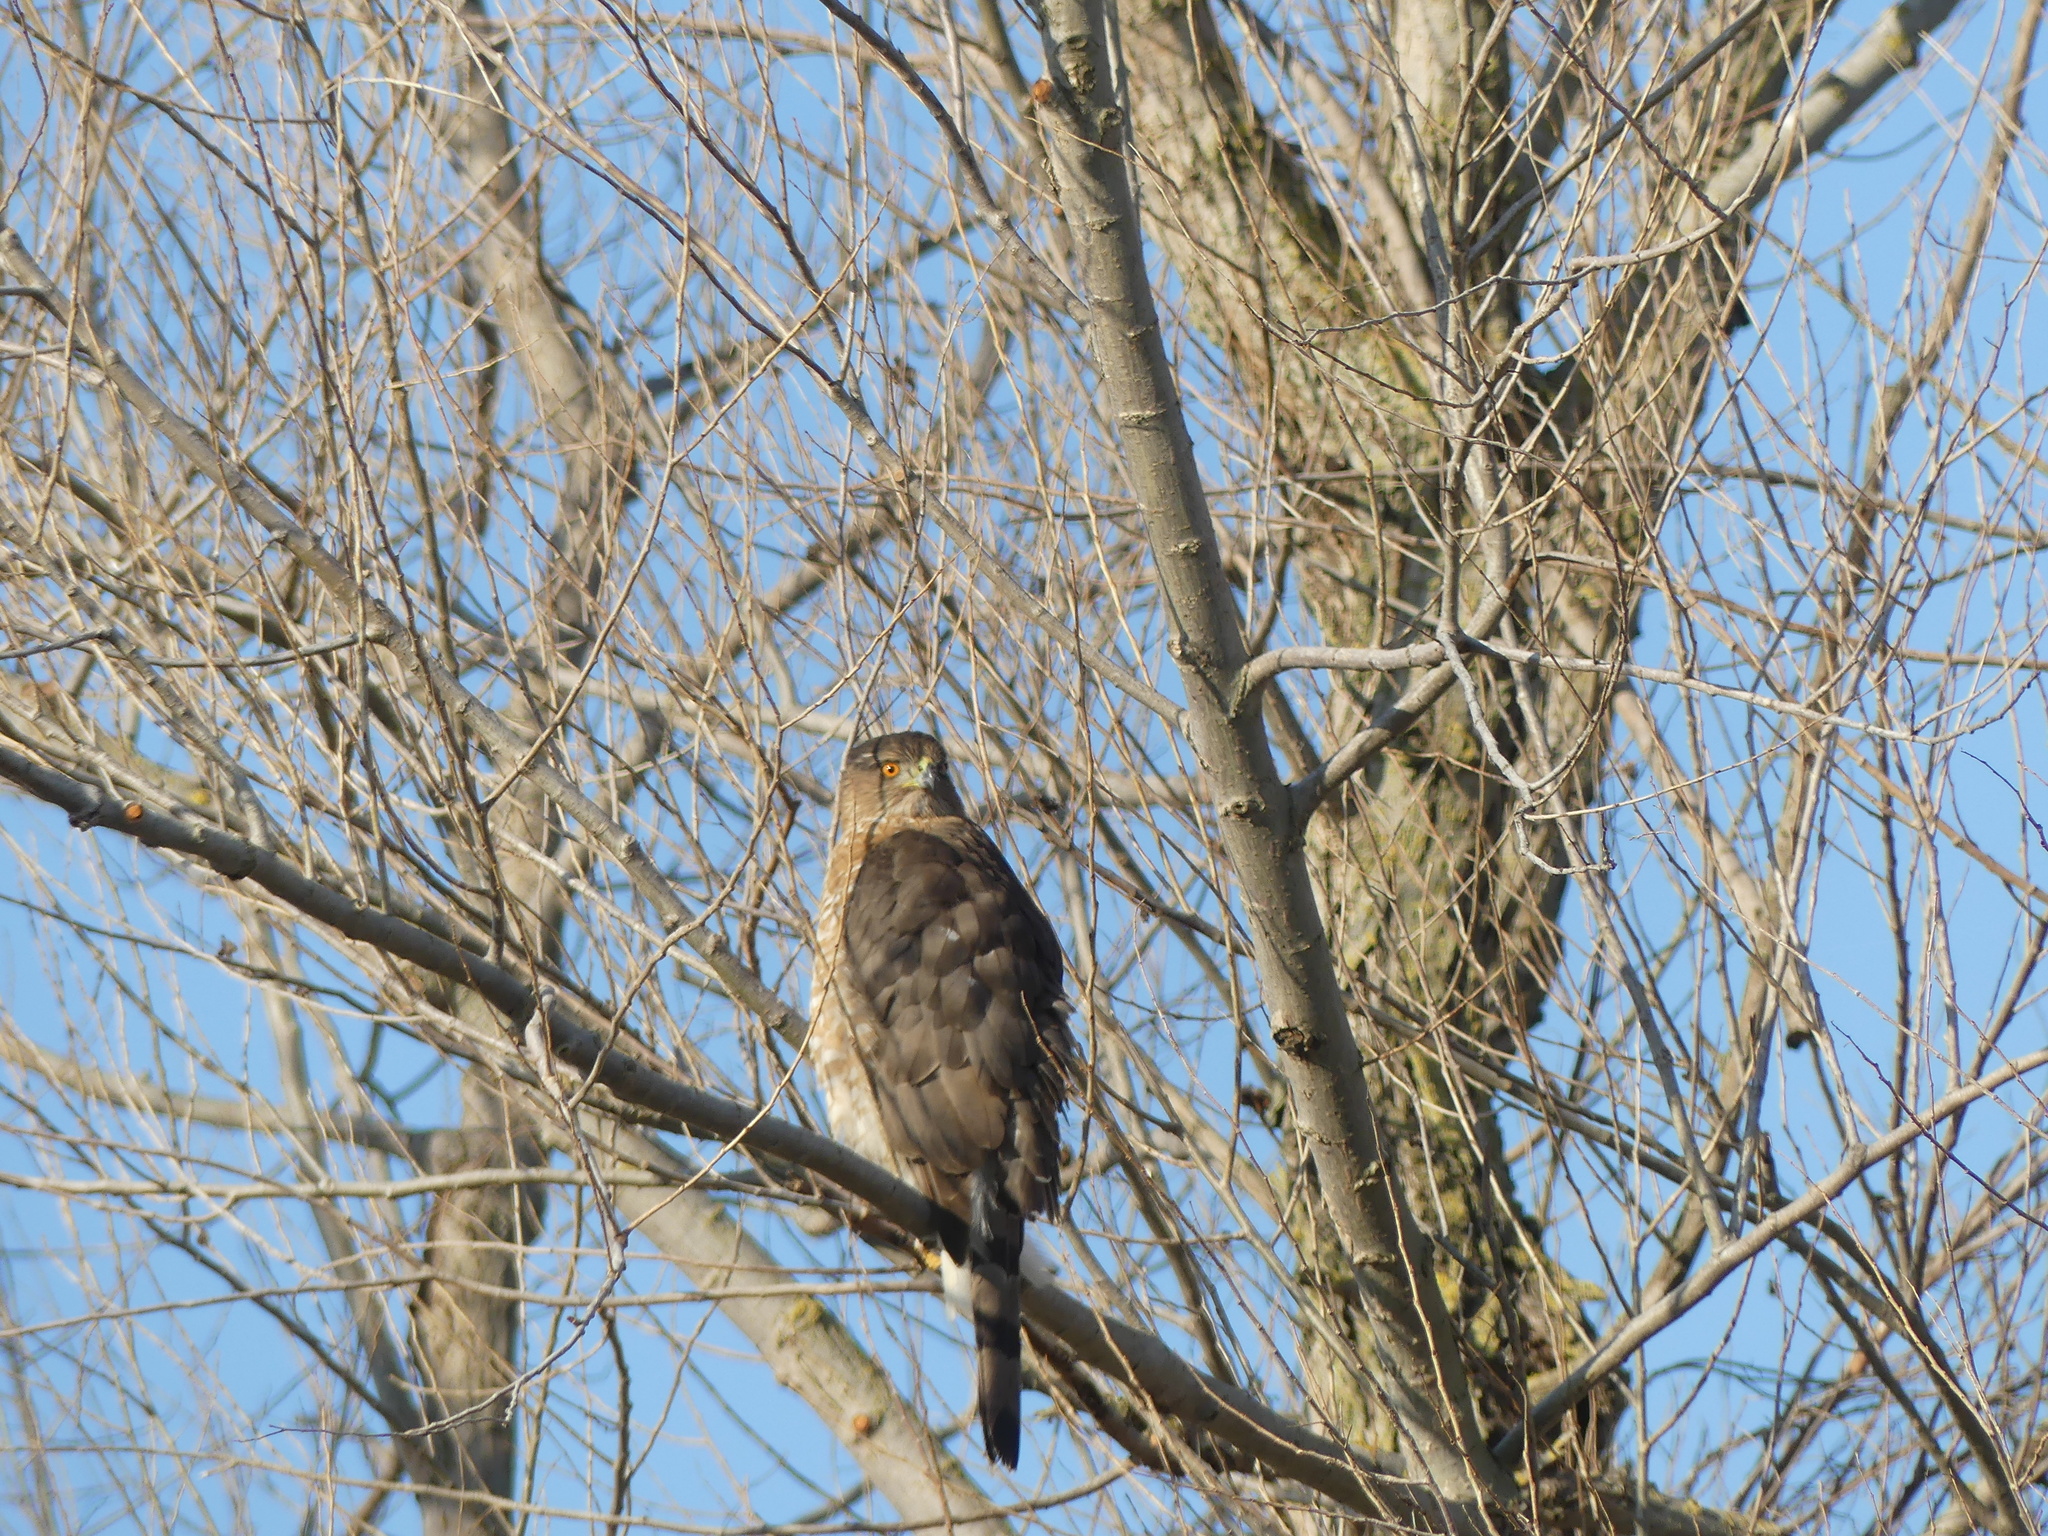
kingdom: Animalia
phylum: Chordata
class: Aves
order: Accipitriformes
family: Accipitridae
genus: Accipiter
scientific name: Accipiter cooperii
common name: Cooper's hawk
